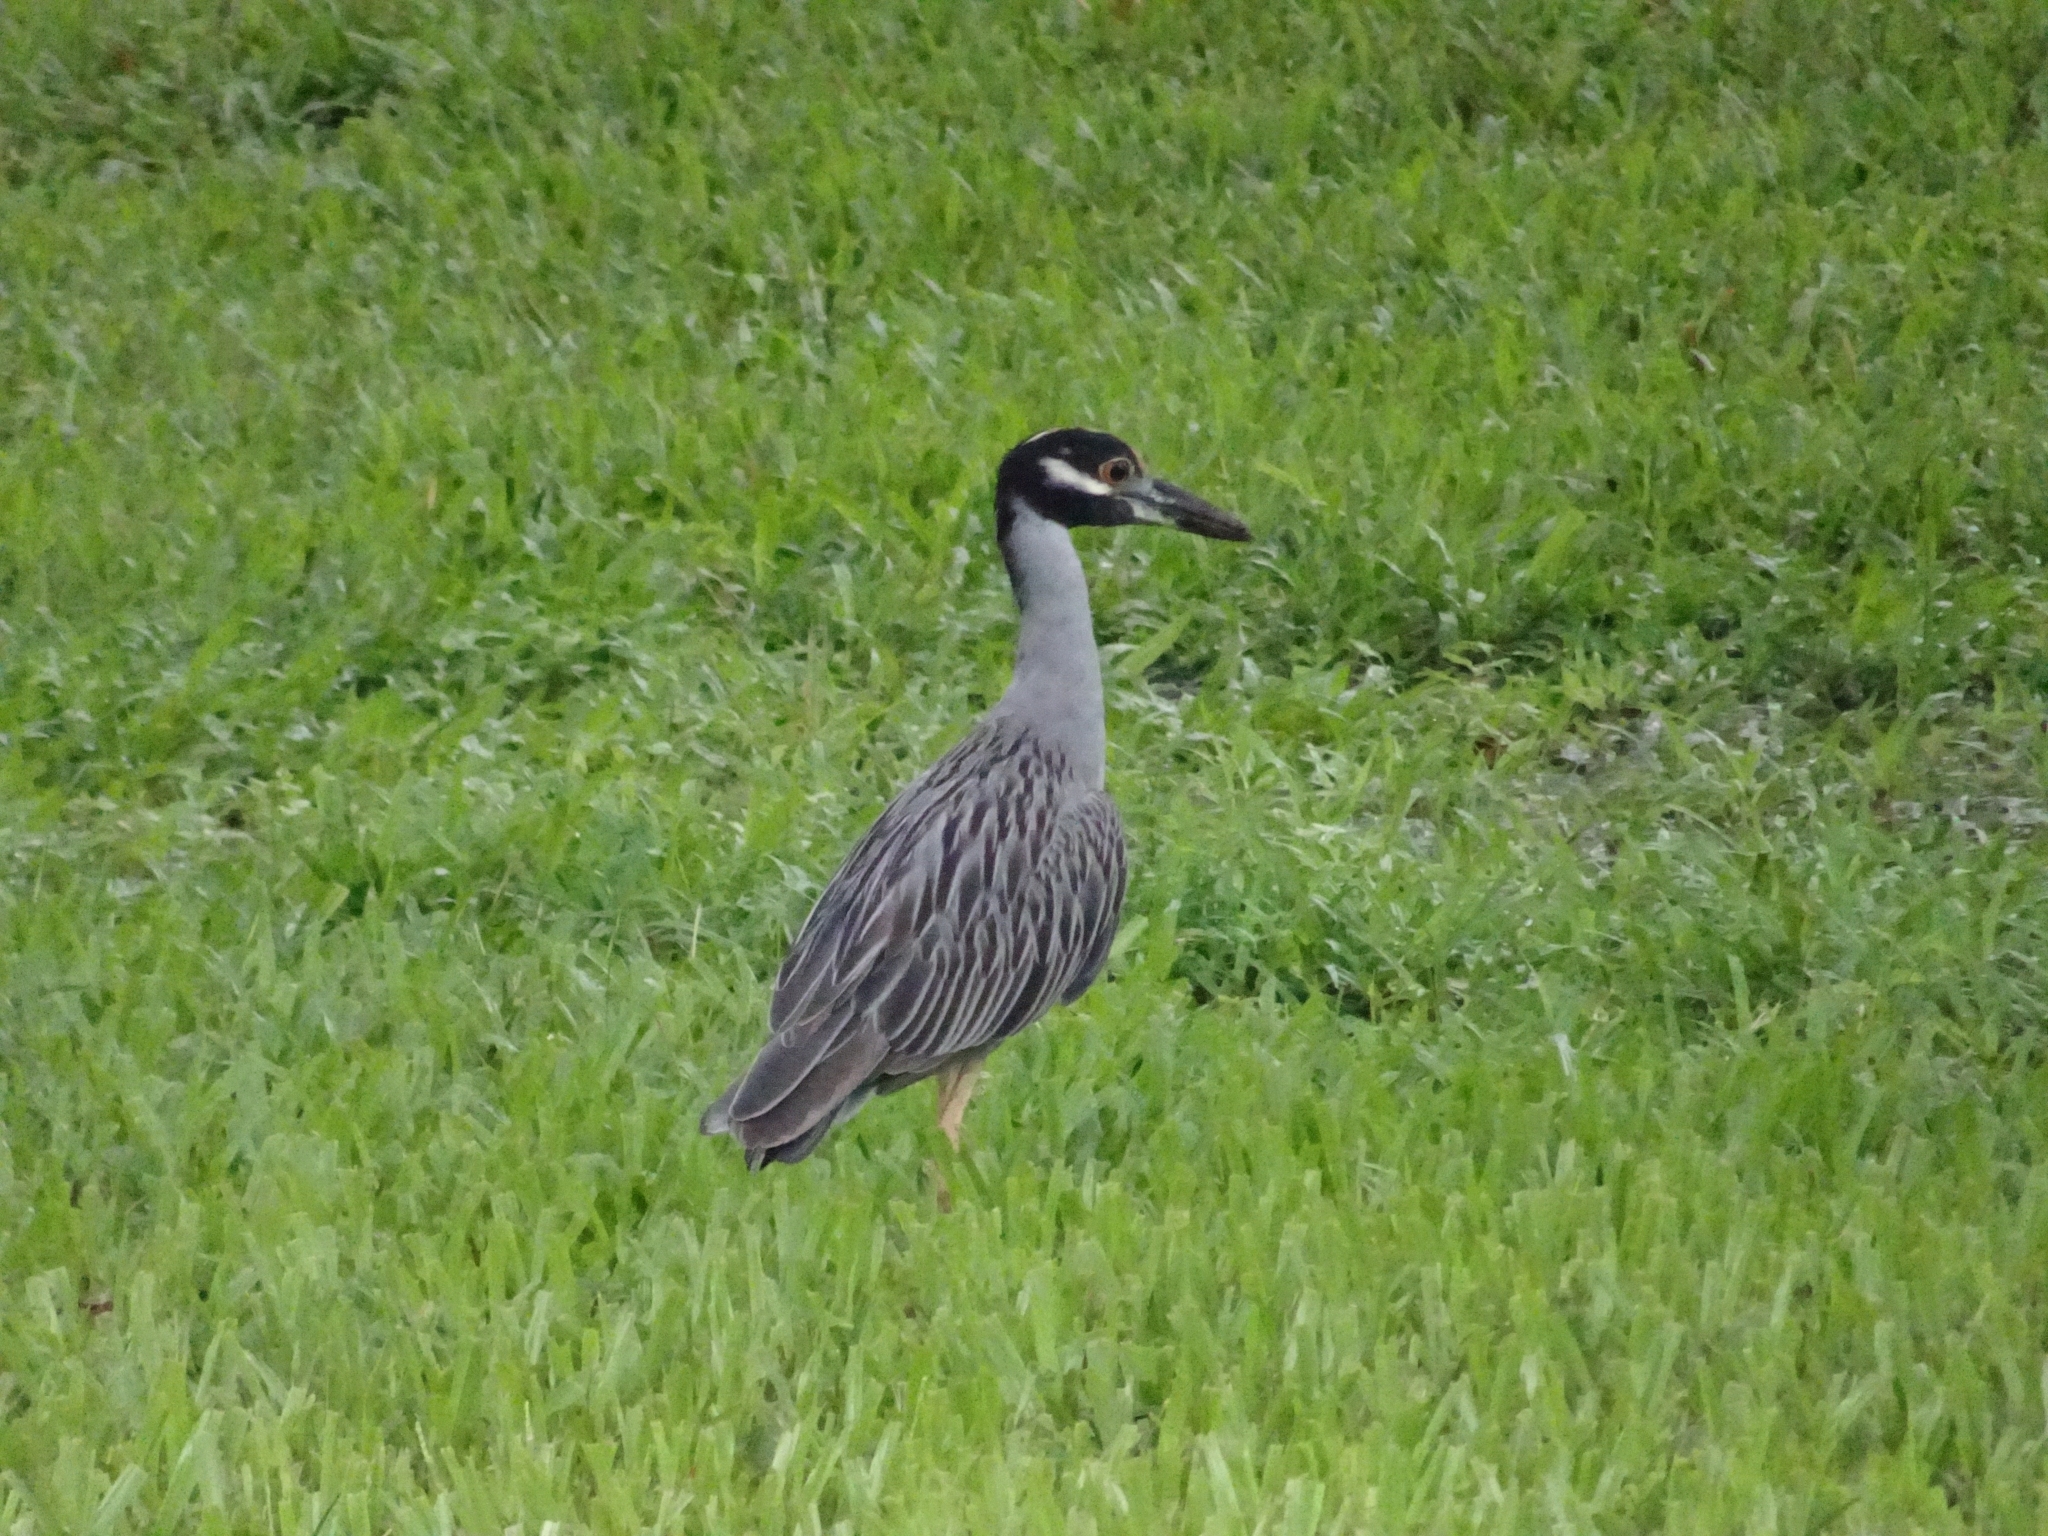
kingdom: Animalia
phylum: Chordata
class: Aves
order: Pelecaniformes
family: Ardeidae
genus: Nyctanassa
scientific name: Nyctanassa violacea
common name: Yellow-crowned night heron
